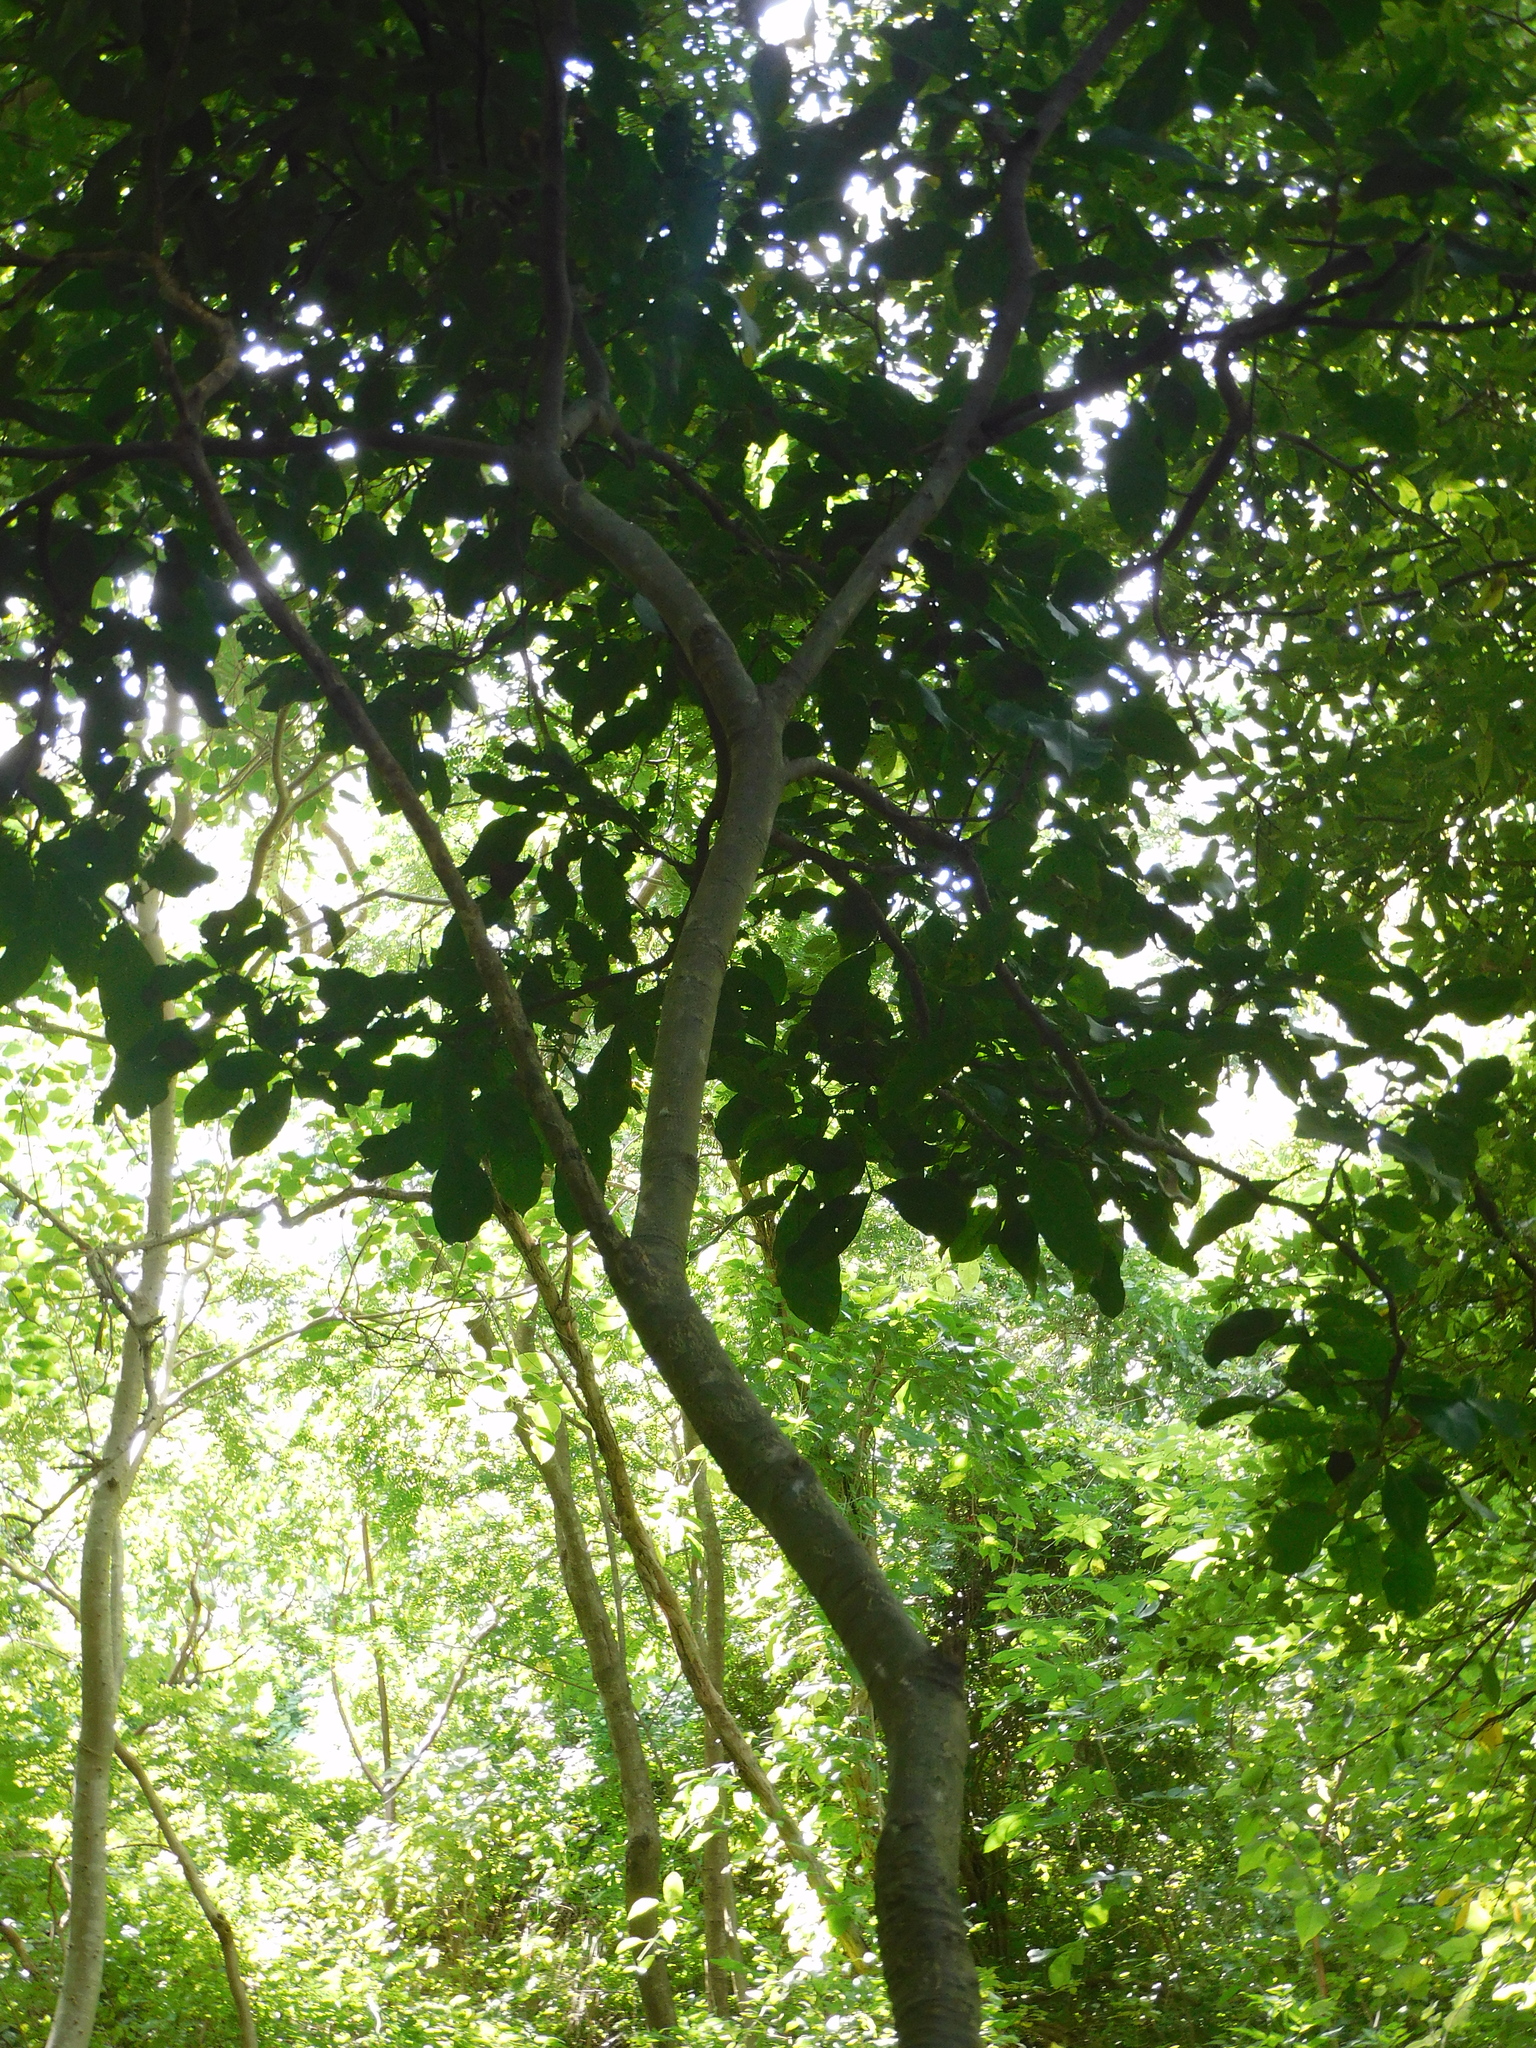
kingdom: Plantae
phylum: Tracheophyta
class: Magnoliopsida
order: Sapindales
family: Sapindaceae
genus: Melicoccus
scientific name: Melicoccus bijugatus
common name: Spanish lime
